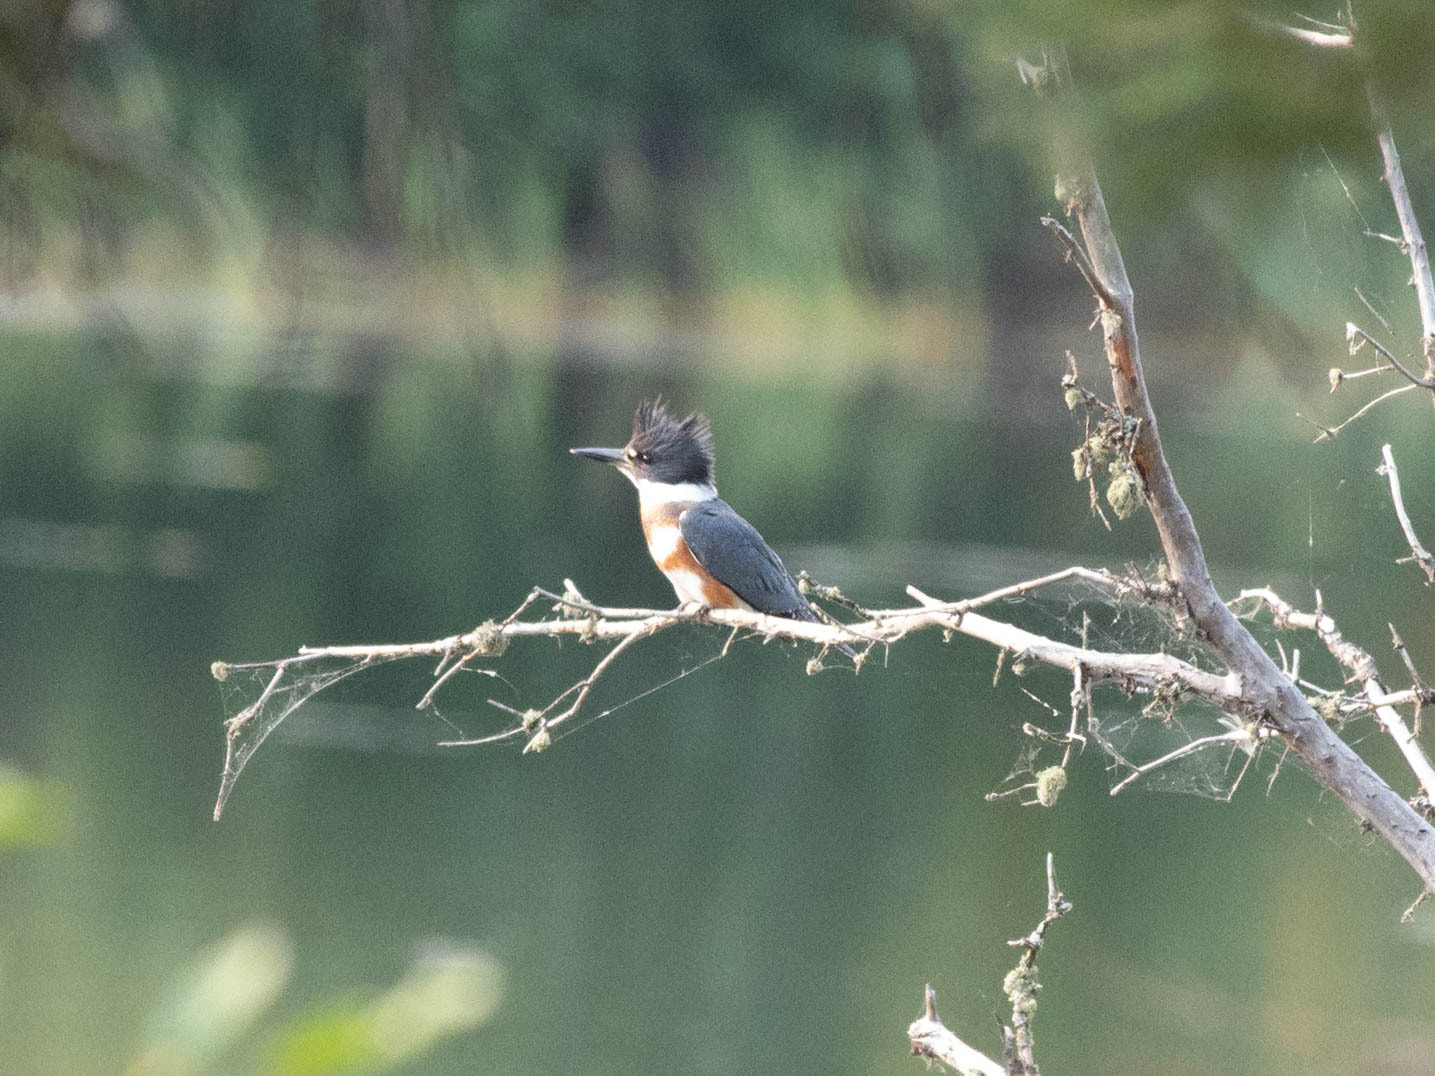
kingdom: Animalia
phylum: Chordata
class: Aves
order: Coraciiformes
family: Alcedinidae
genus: Megaceryle
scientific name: Megaceryle alcyon
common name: Belted kingfisher
